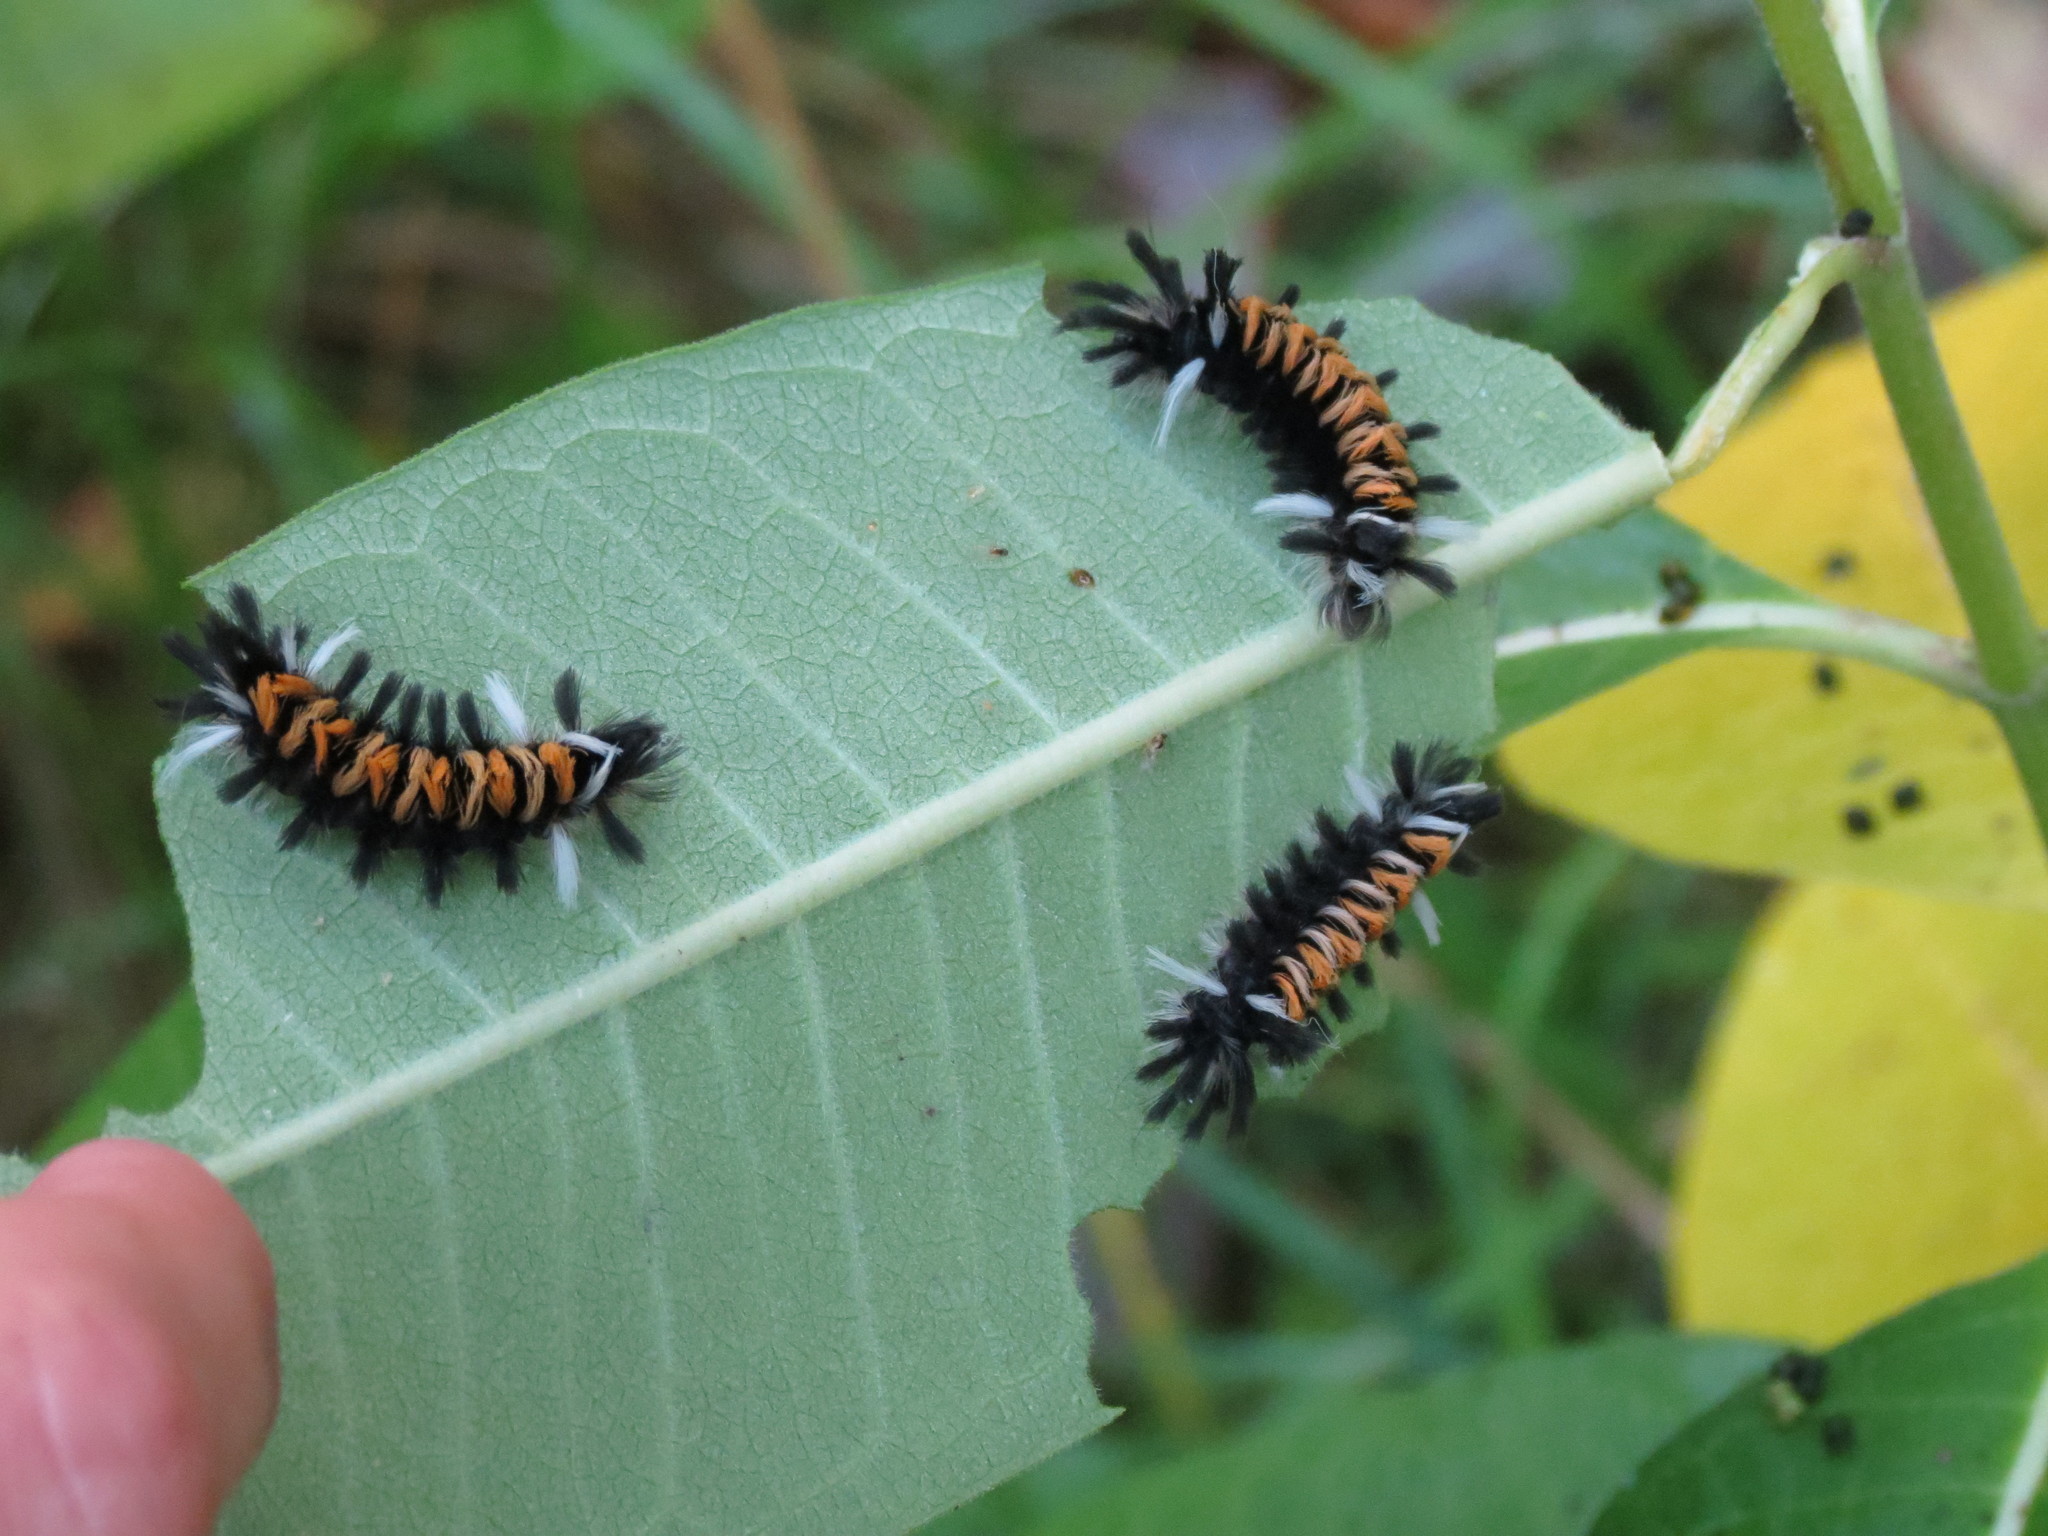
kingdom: Animalia
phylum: Arthropoda
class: Insecta
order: Lepidoptera
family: Erebidae
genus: Euchaetes
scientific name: Euchaetes egle
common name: Milkweed tussock moth
